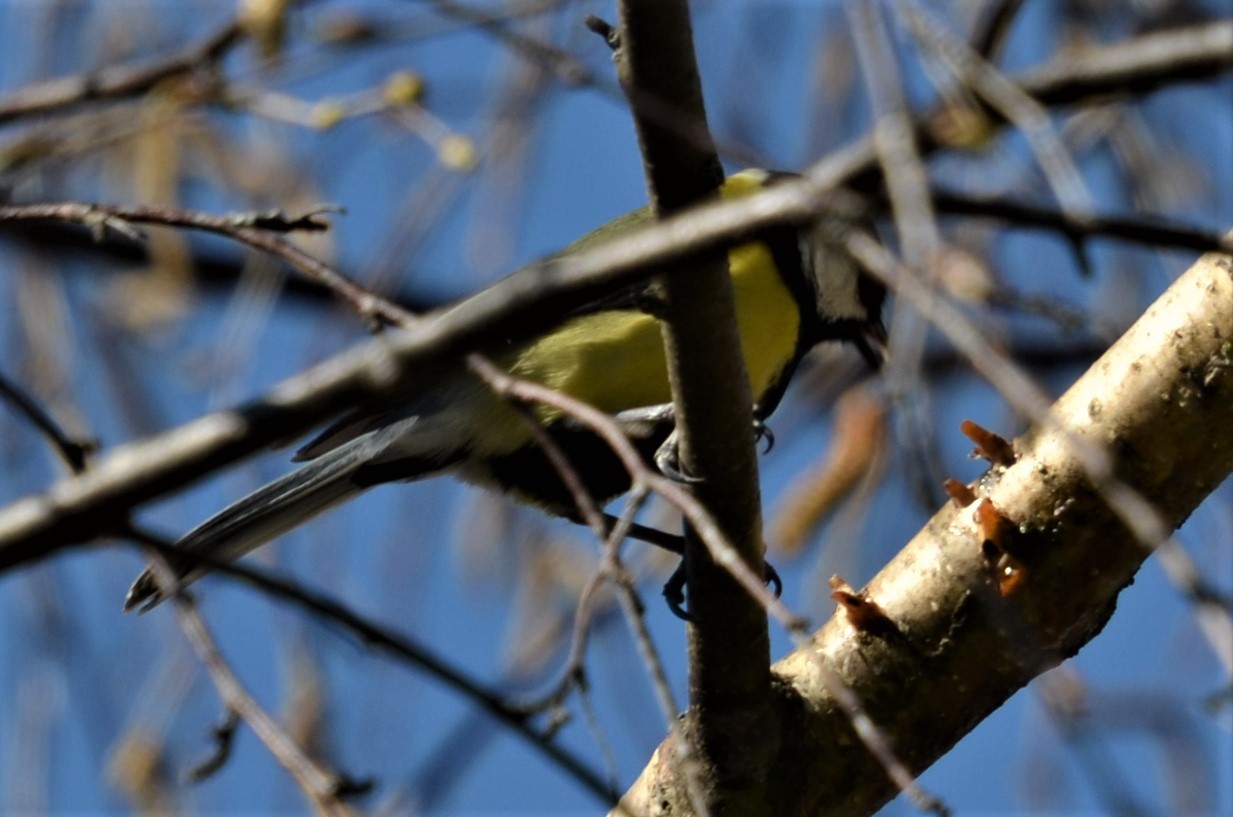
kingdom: Animalia
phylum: Chordata
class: Aves
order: Passeriformes
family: Paridae
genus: Parus
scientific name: Parus major
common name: Great tit
